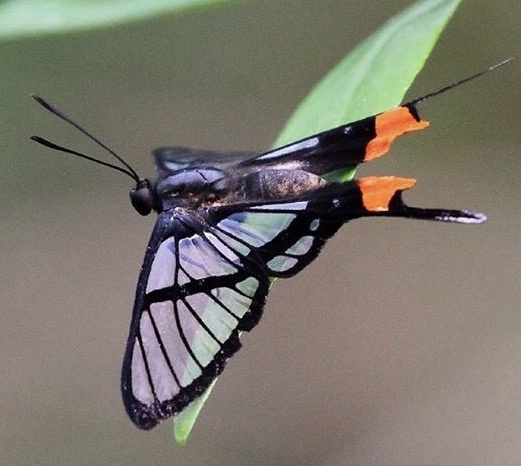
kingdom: Animalia
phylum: Arthropoda
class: Insecta
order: Lepidoptera
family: Riodinidae
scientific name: Riodinidae
